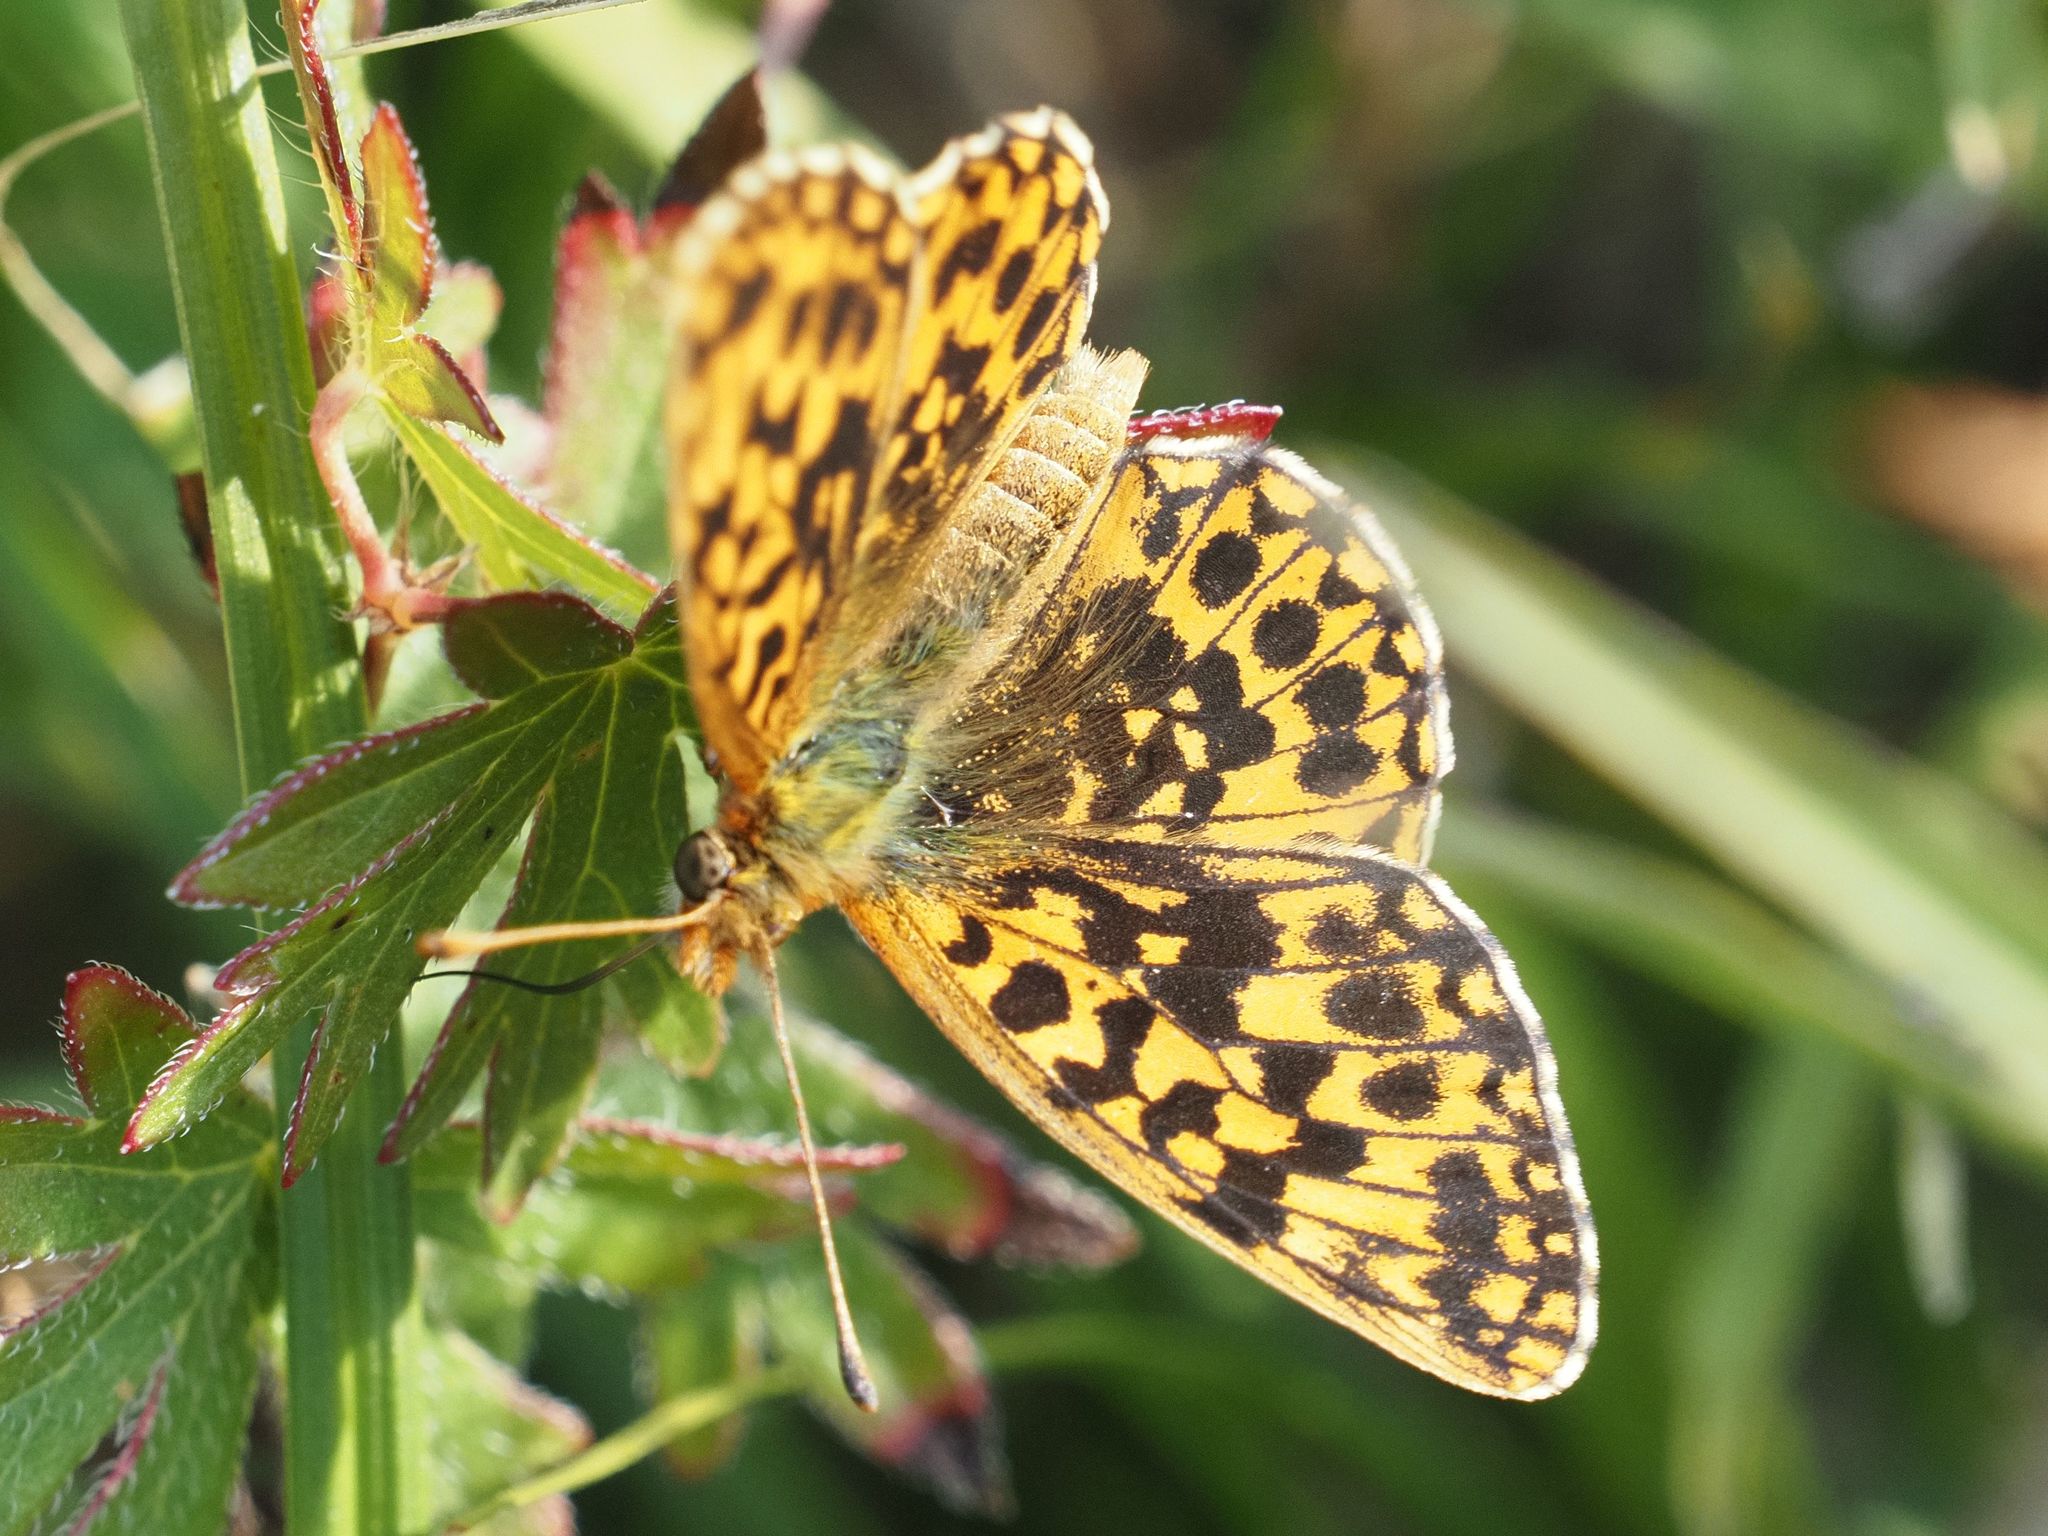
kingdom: Animalia
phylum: Arthropoda
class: Insecta
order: Lepidoptera
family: Nymphalidae
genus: Boloria
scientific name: Boloria dia
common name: Weaver's fritillary
